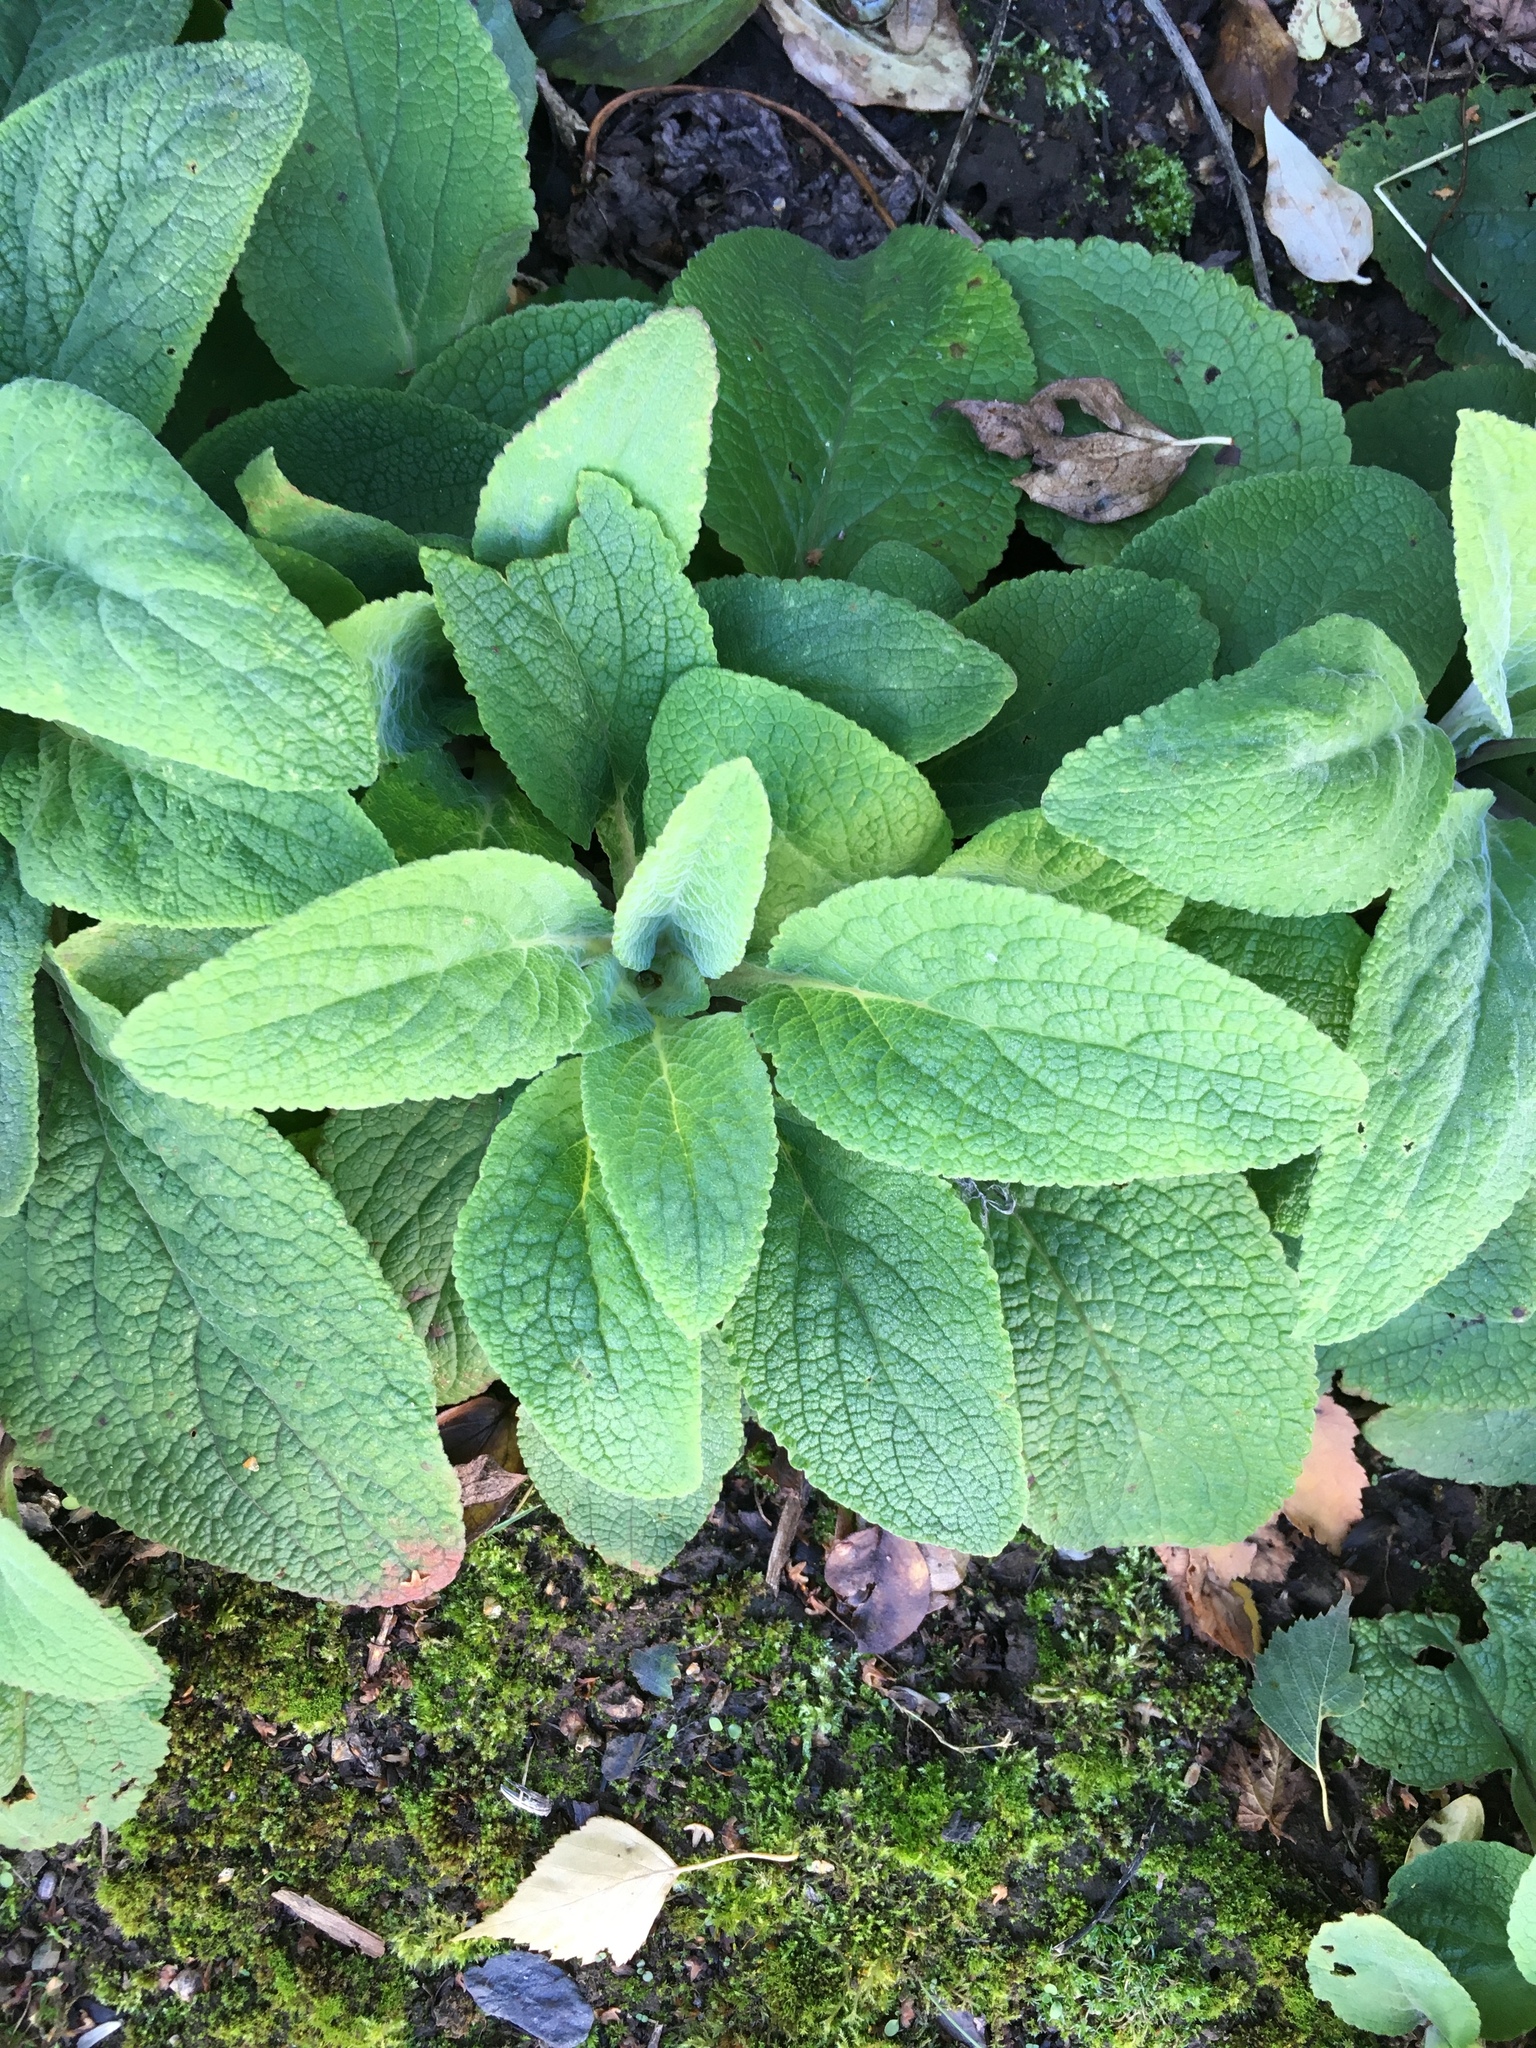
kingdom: Plantae
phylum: Tracheophyta
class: Magnoliopsida
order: Lamiales
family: Plantaginaceae
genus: Digitalis
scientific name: Digitalis purpurea
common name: Foxglove
